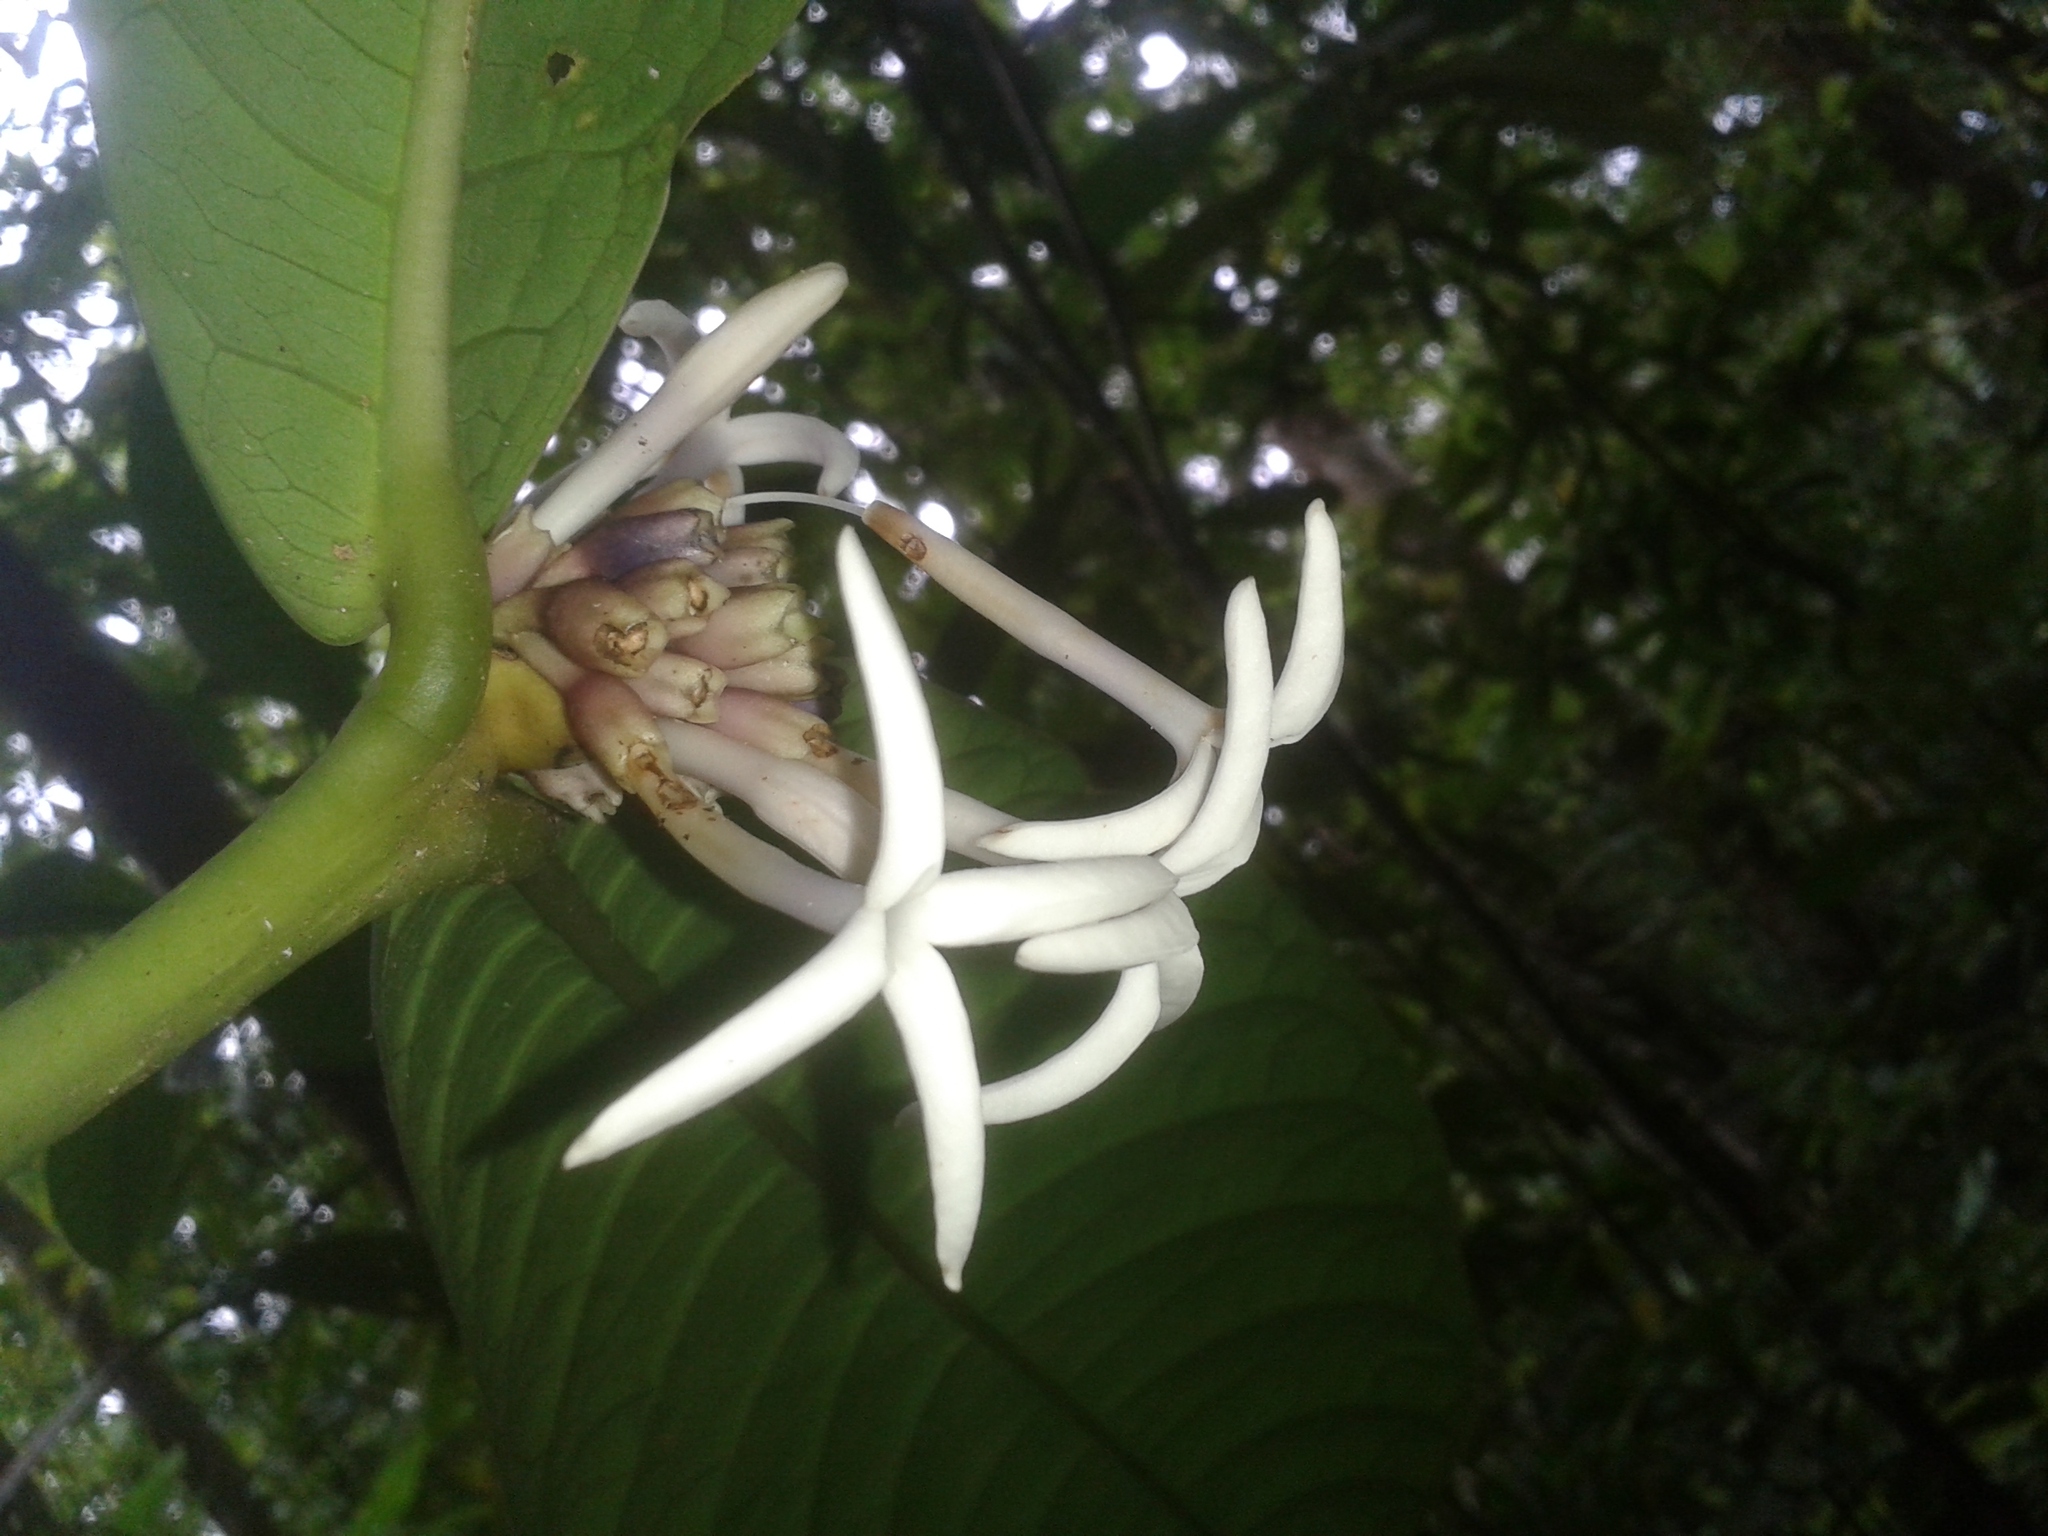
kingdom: Plantae
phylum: Tracheophyta
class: Magnoliopsida
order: Gentianales
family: Rubiaceae
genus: Faramea
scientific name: Faramea permagnifolia
